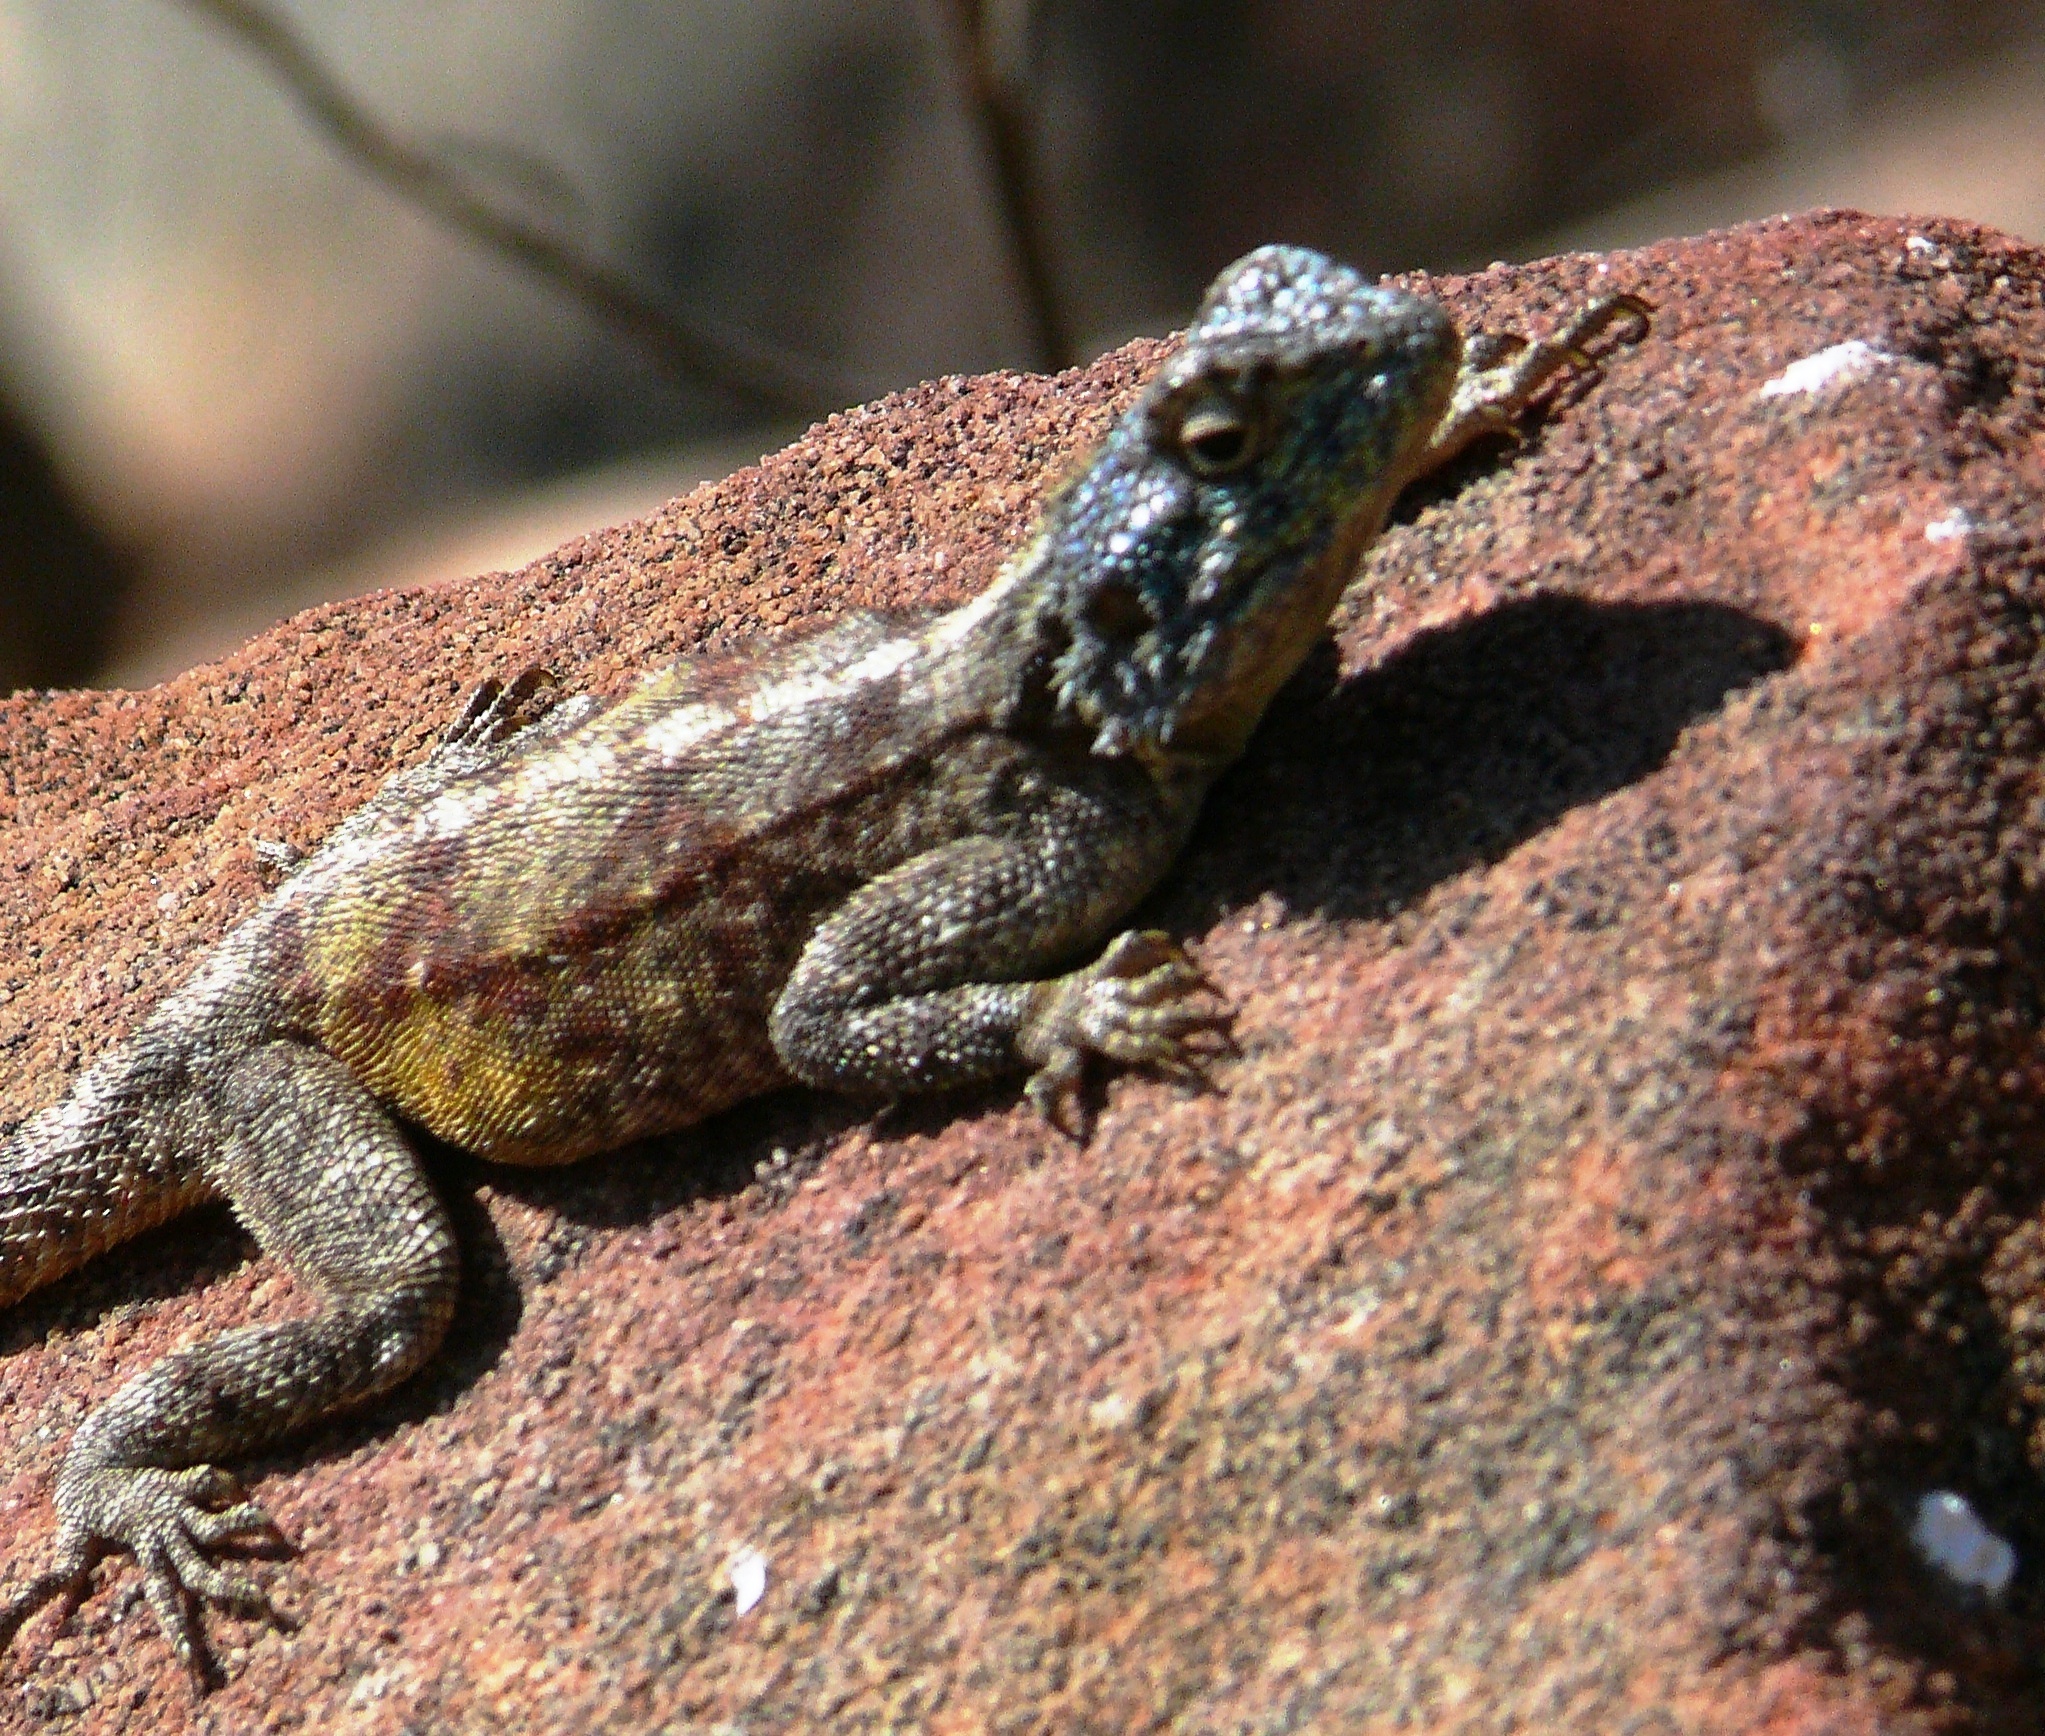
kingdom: Animalia
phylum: Chordata
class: Squamata
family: Agamidae
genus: Agama
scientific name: Agama atra
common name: Southern african rock agama
